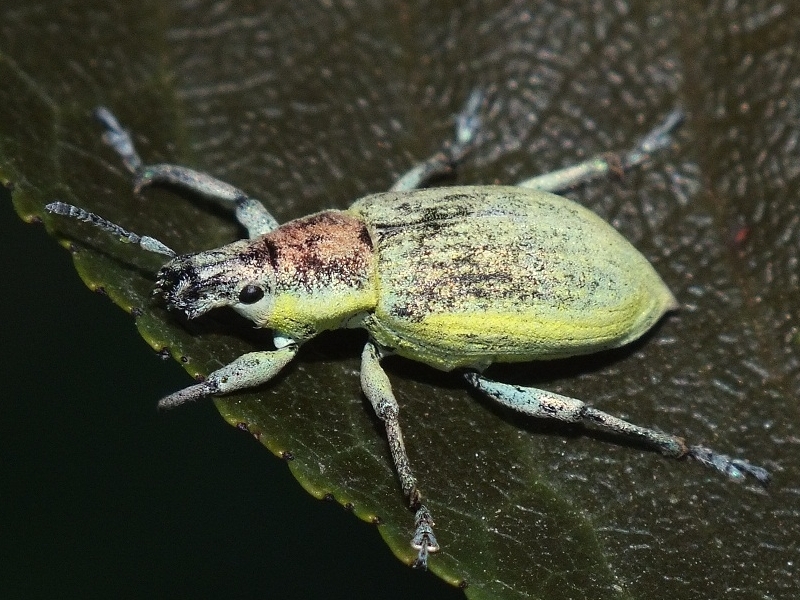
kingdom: Animalia
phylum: Arthropoda
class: Insecta
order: Coleoptera
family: Curculionidae
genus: Chlorophanus
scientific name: Chlorophanus micans
